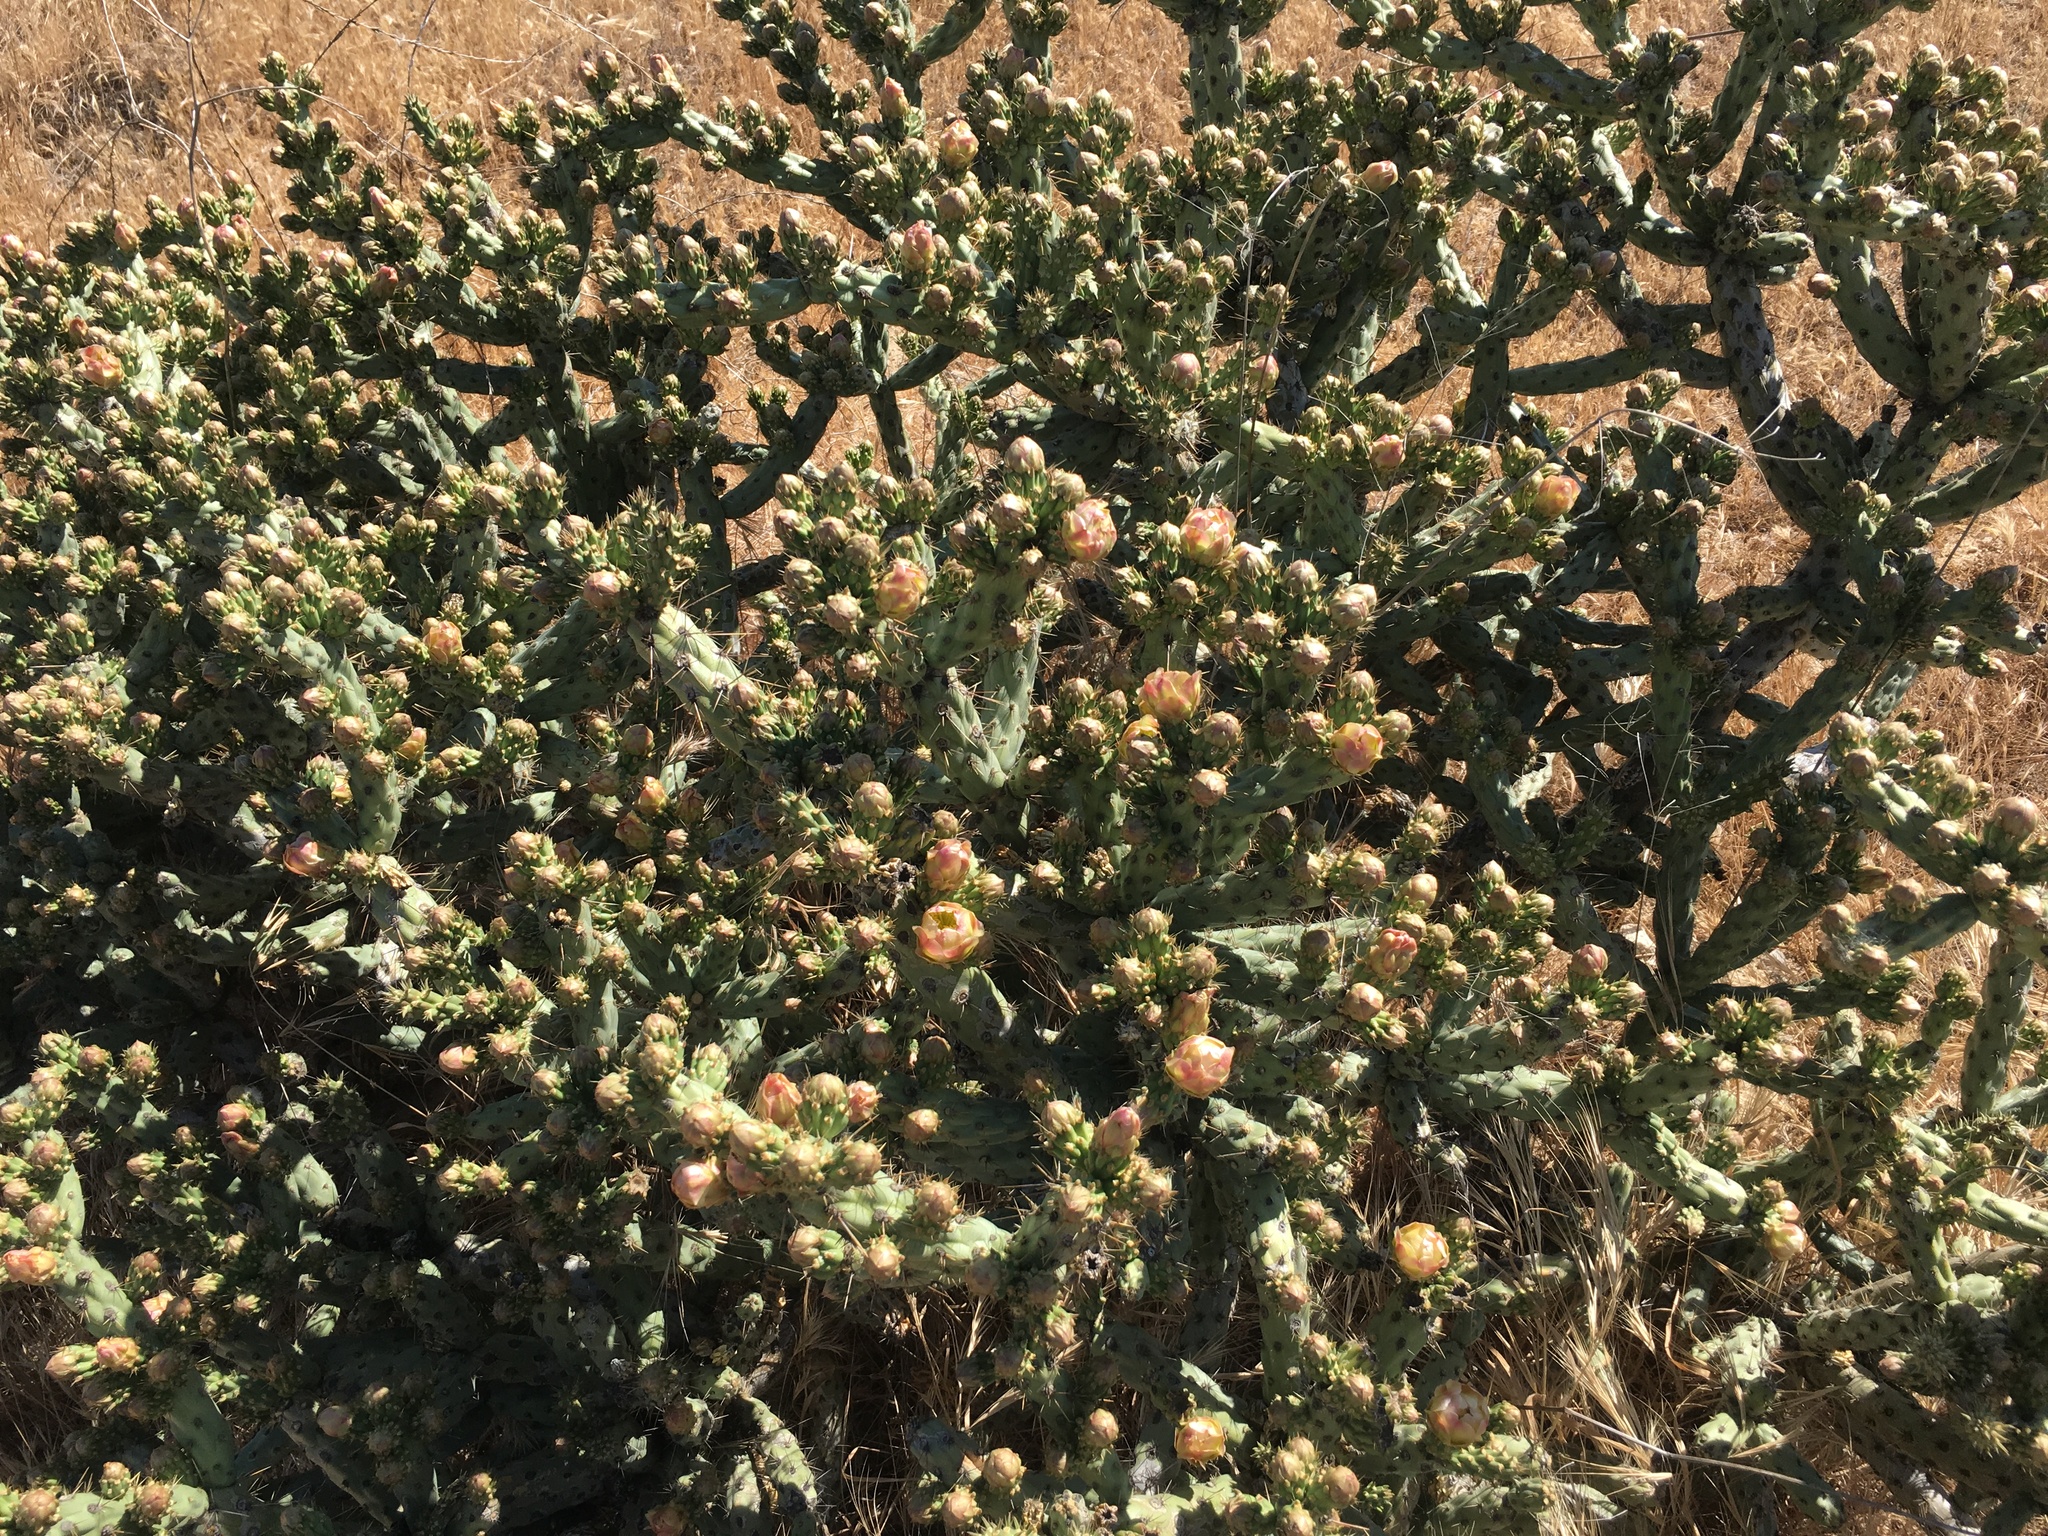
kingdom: Plantae
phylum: Tracheophyta
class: Magnoliopsida
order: Caryophyllales
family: Cactaceae
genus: Cylindropuntia
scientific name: Cylindropuntia bernardina
